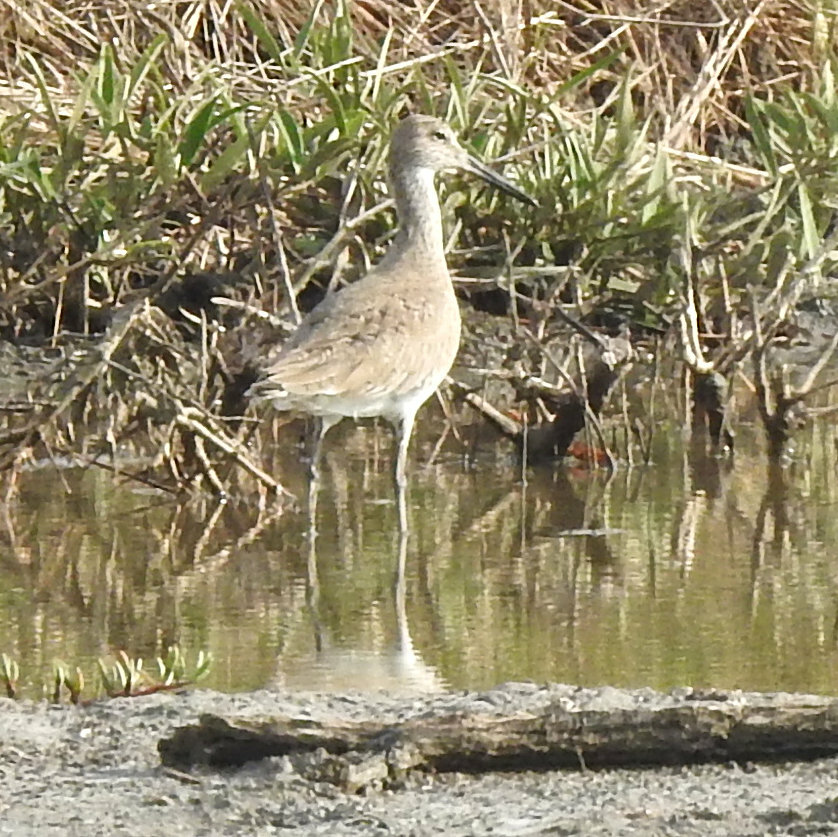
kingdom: Animalia
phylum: Chordata
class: Aves
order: Charadriiformes
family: Scolopacidae
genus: Tringa
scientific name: Tringa semipalmata
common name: Willet
